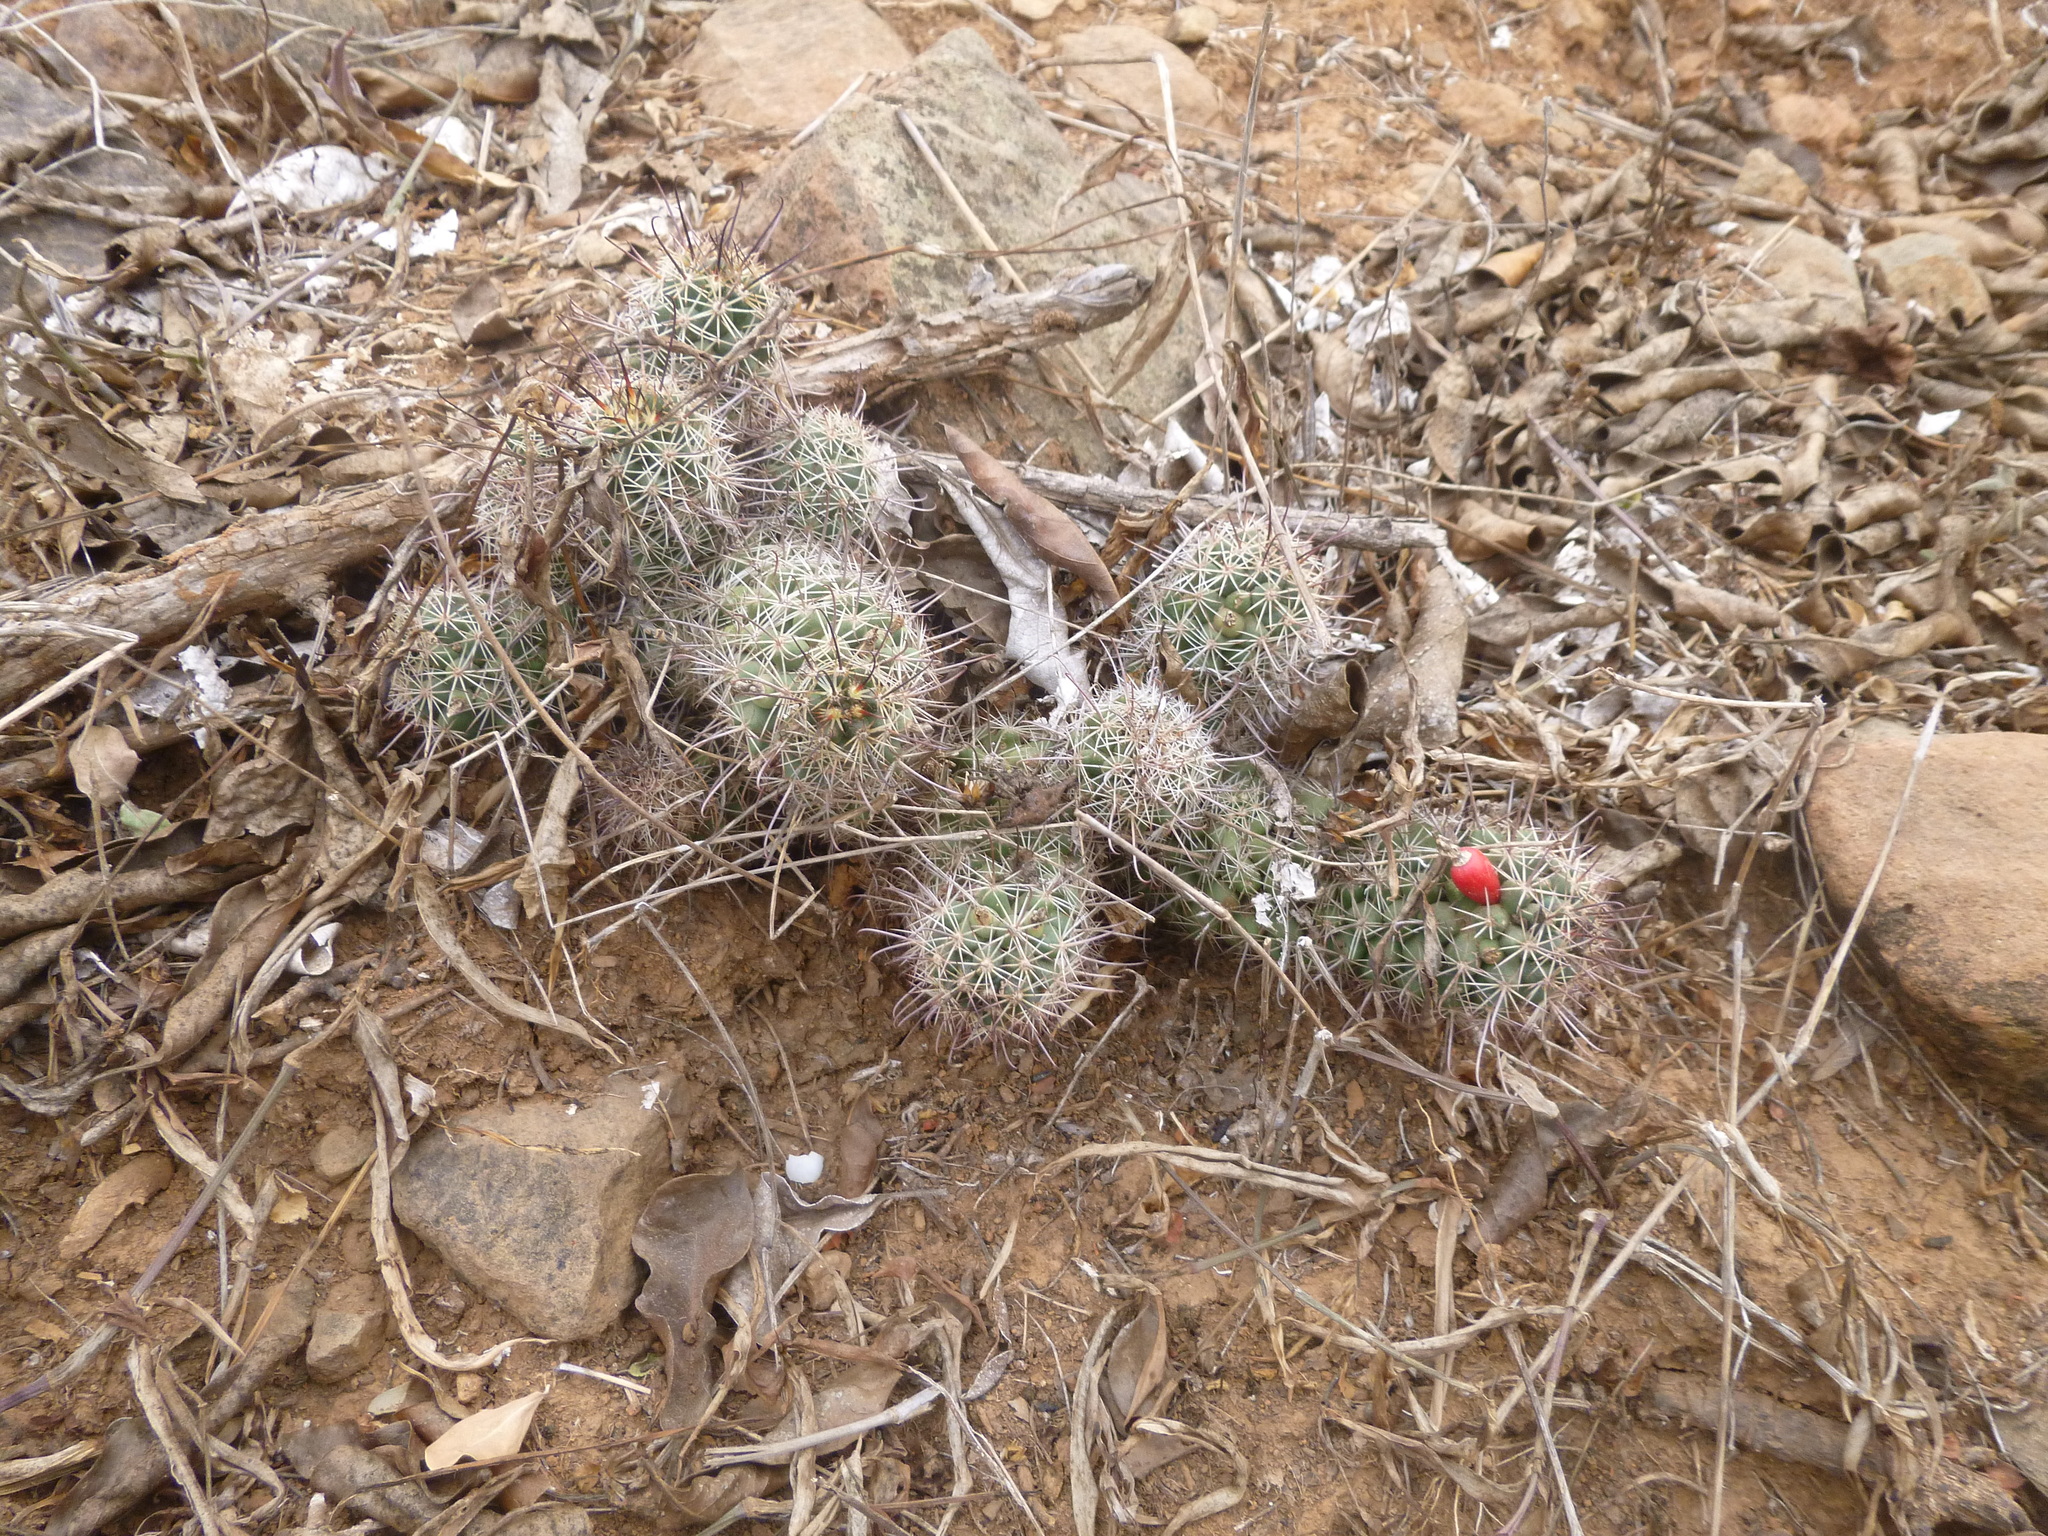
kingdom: Plantae
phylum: Tracheophyta
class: Magnoliopsida
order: Caryophyllales
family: Cactaceae
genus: Cochemiea
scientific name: Cochemiea mazatlanensis
